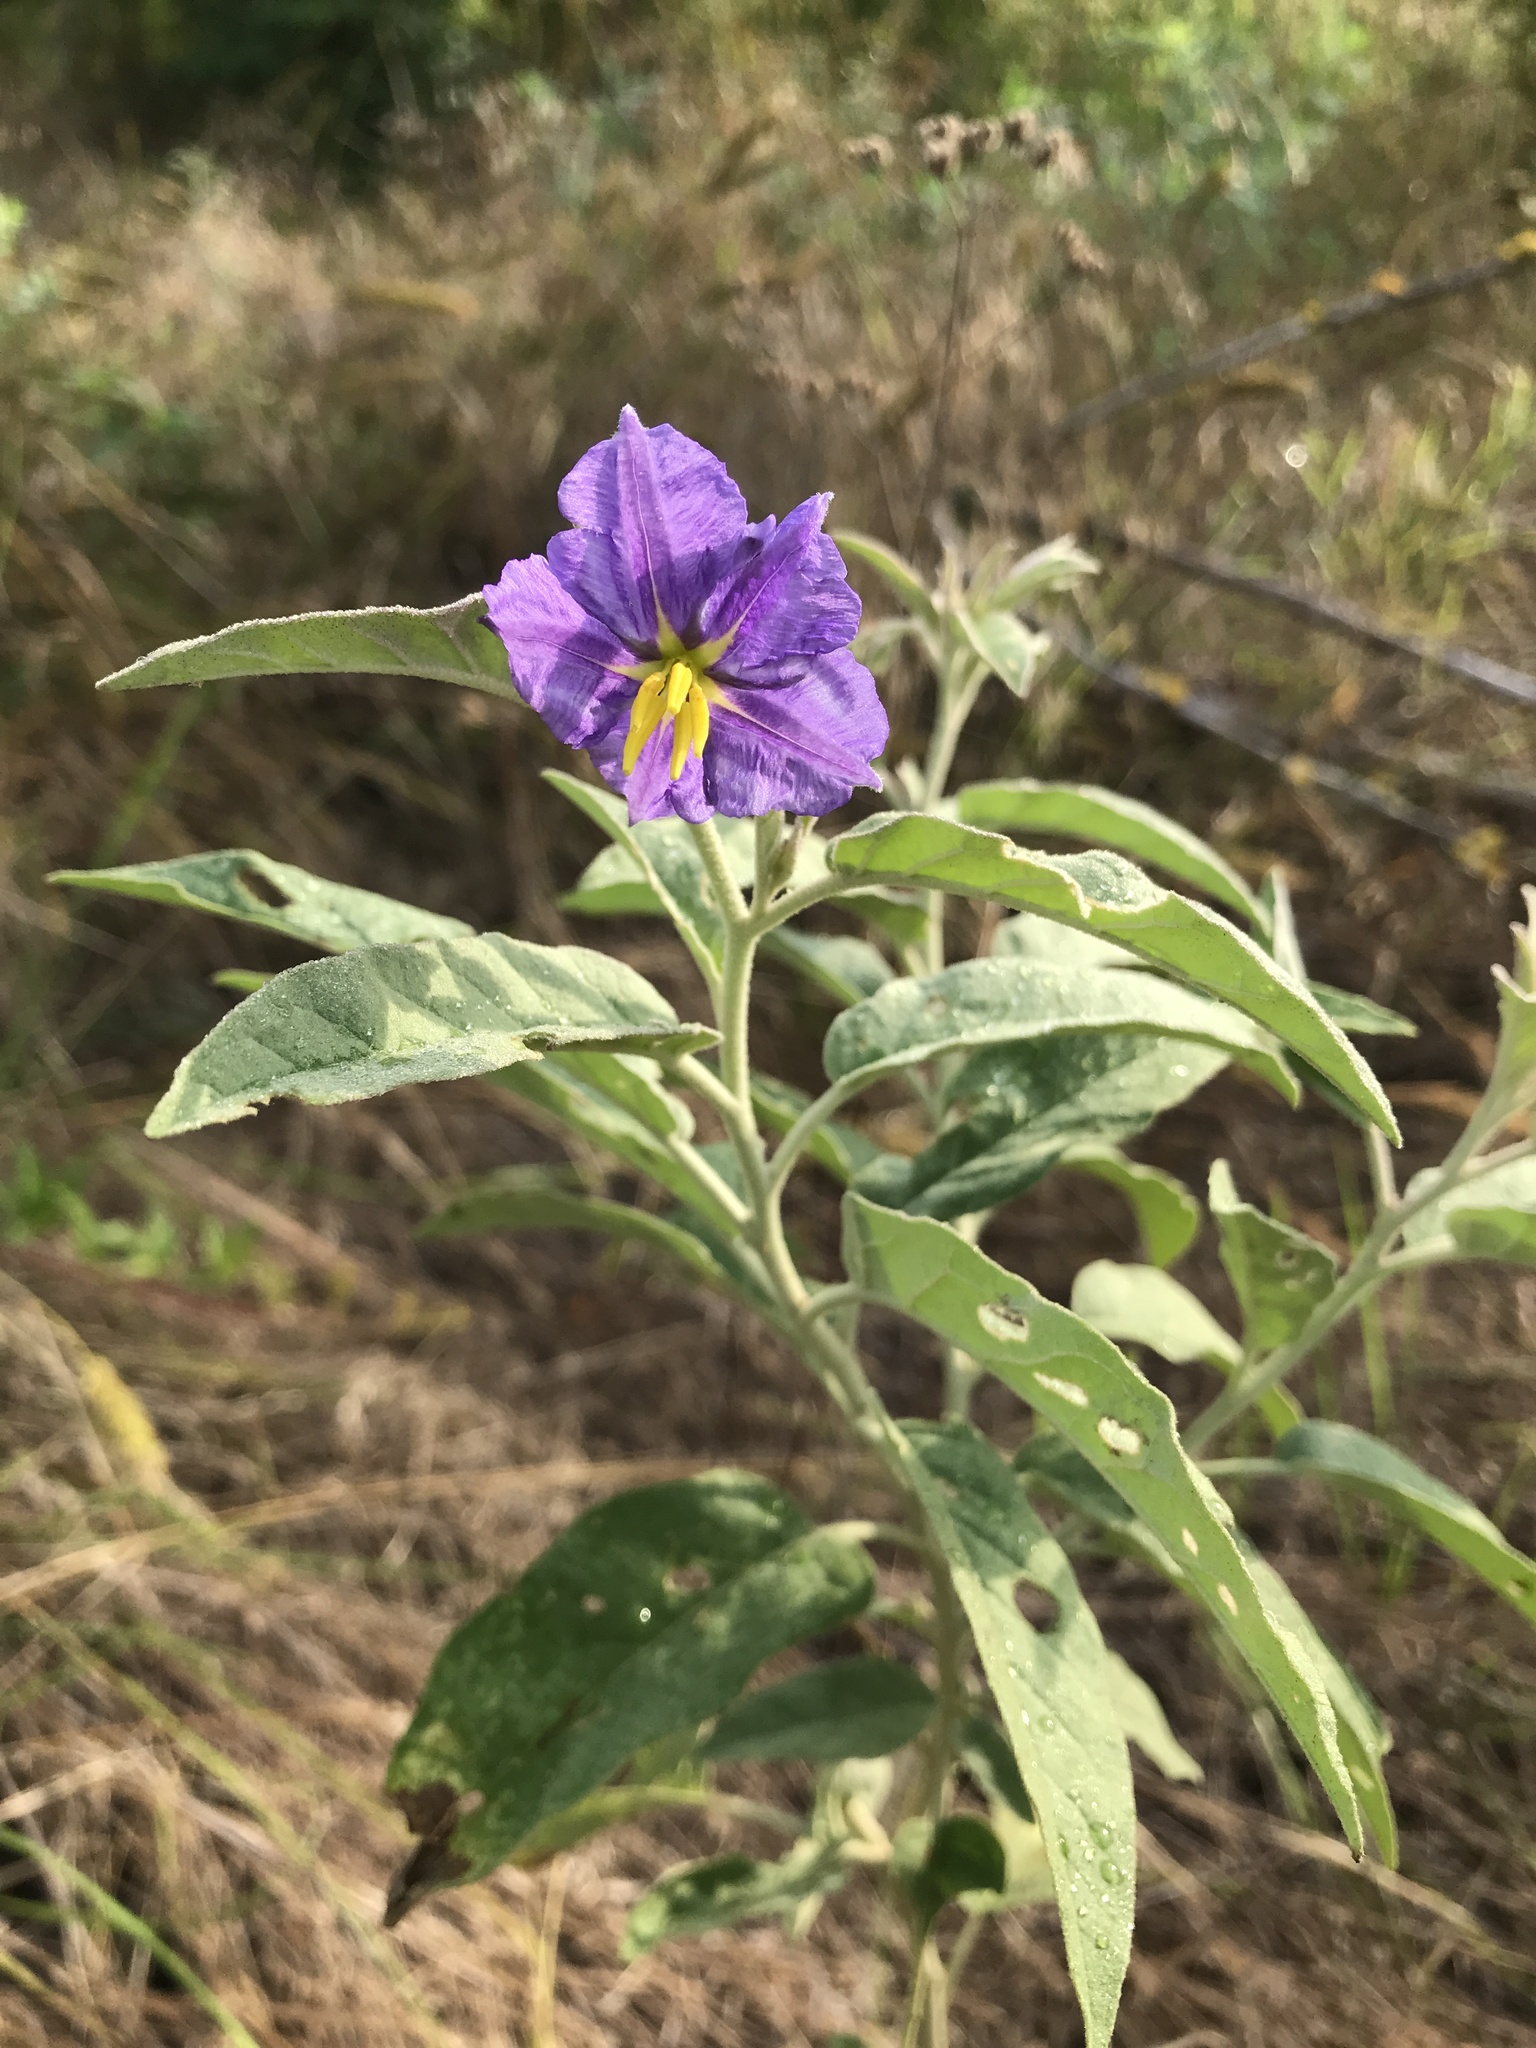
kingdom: Plantae
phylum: Tracheophyta
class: Magnoliopsida
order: Solanales
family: Solanaceae
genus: Solanum
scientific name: Solanum elaeagnifolium
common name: Silverleaf nightshade
